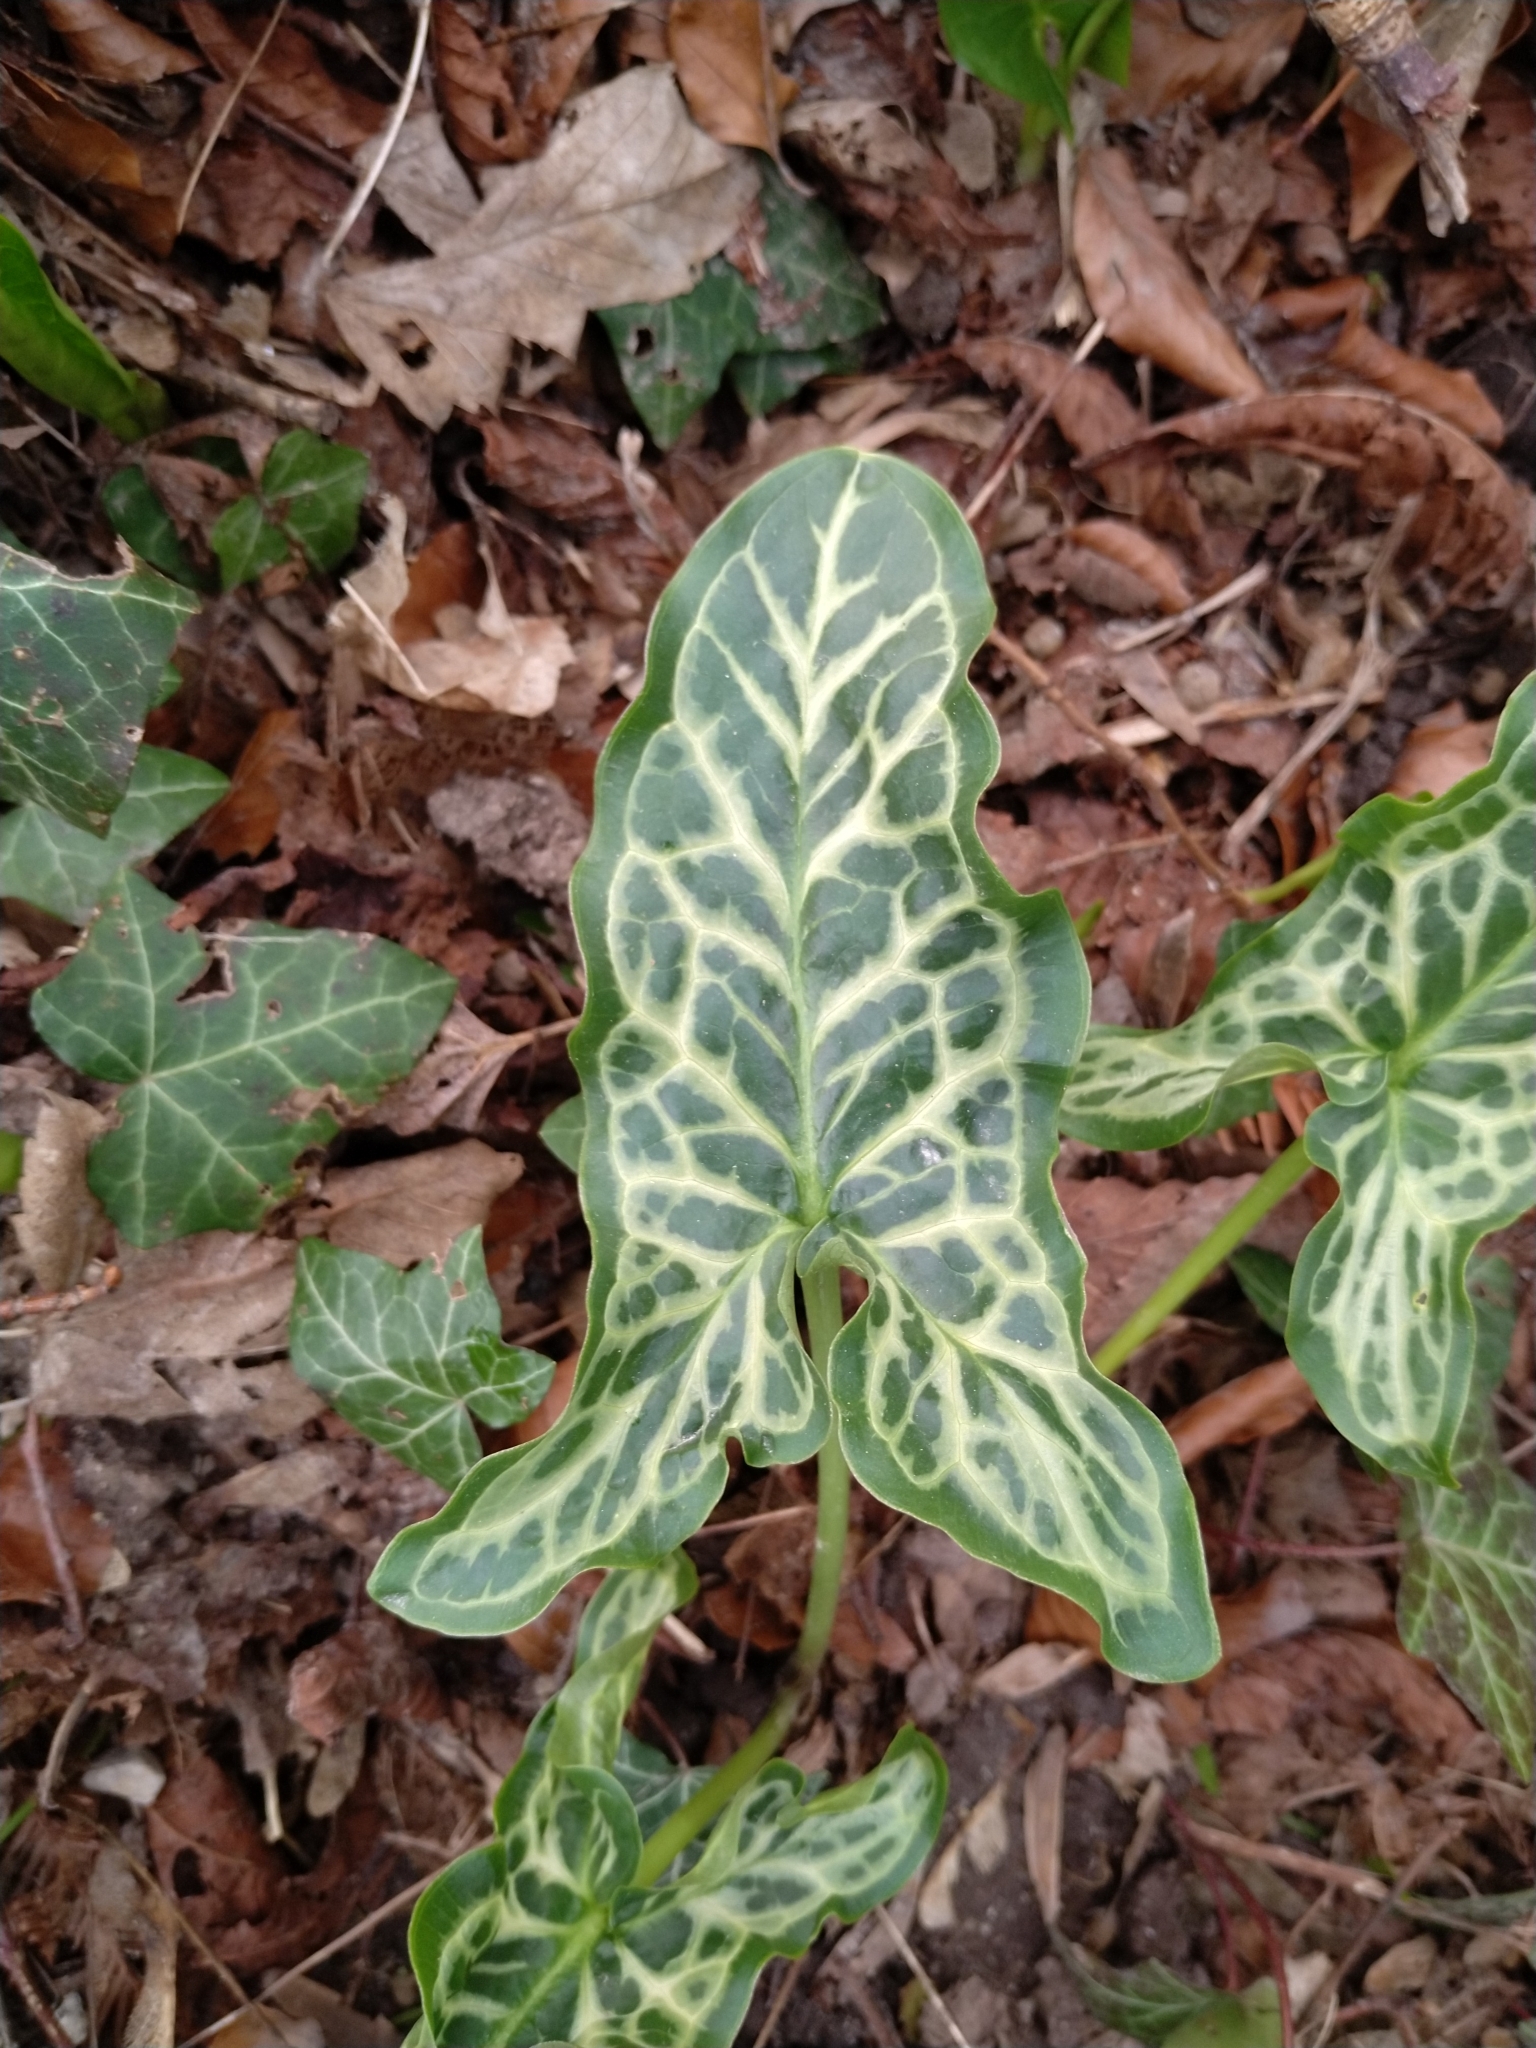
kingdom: Plantae
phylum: Tracheophyta
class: Liliopsida
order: Alismatales
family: Araceae
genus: Arum
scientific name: Arum italicum
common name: Italian lords-and-ladies
